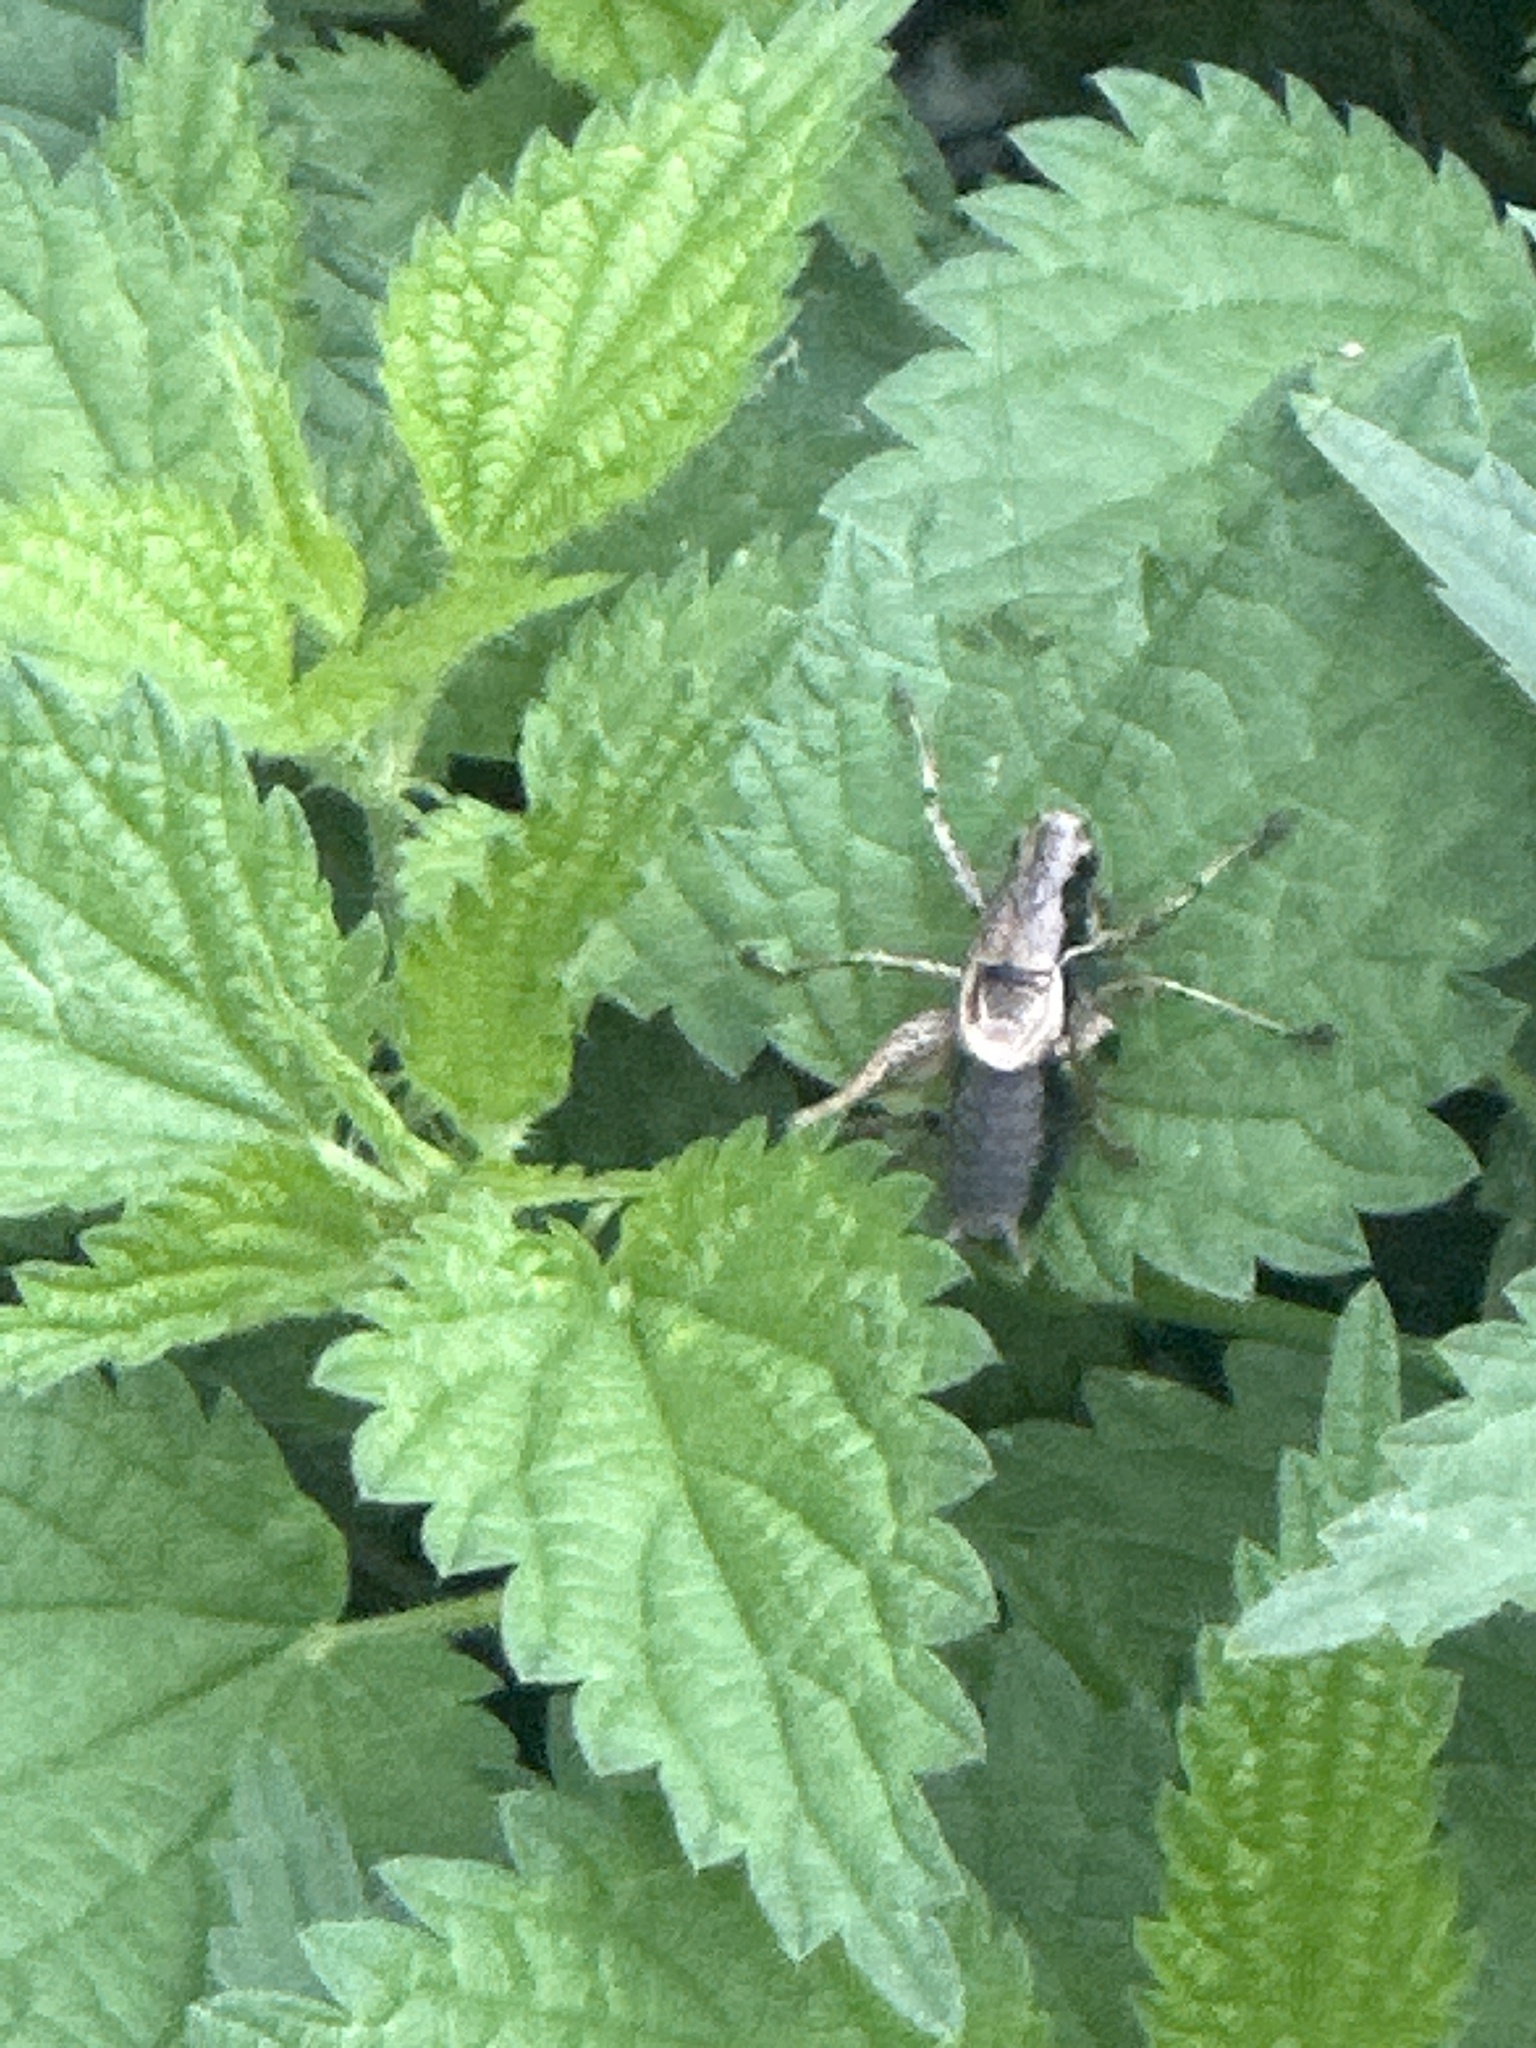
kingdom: Animalia
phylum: Arthropoda
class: Insecta
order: Orthoptera
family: Tettigoniidae
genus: Pholidoptera
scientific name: Pholidoptera griseoaptera
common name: Dark bush-cricket
